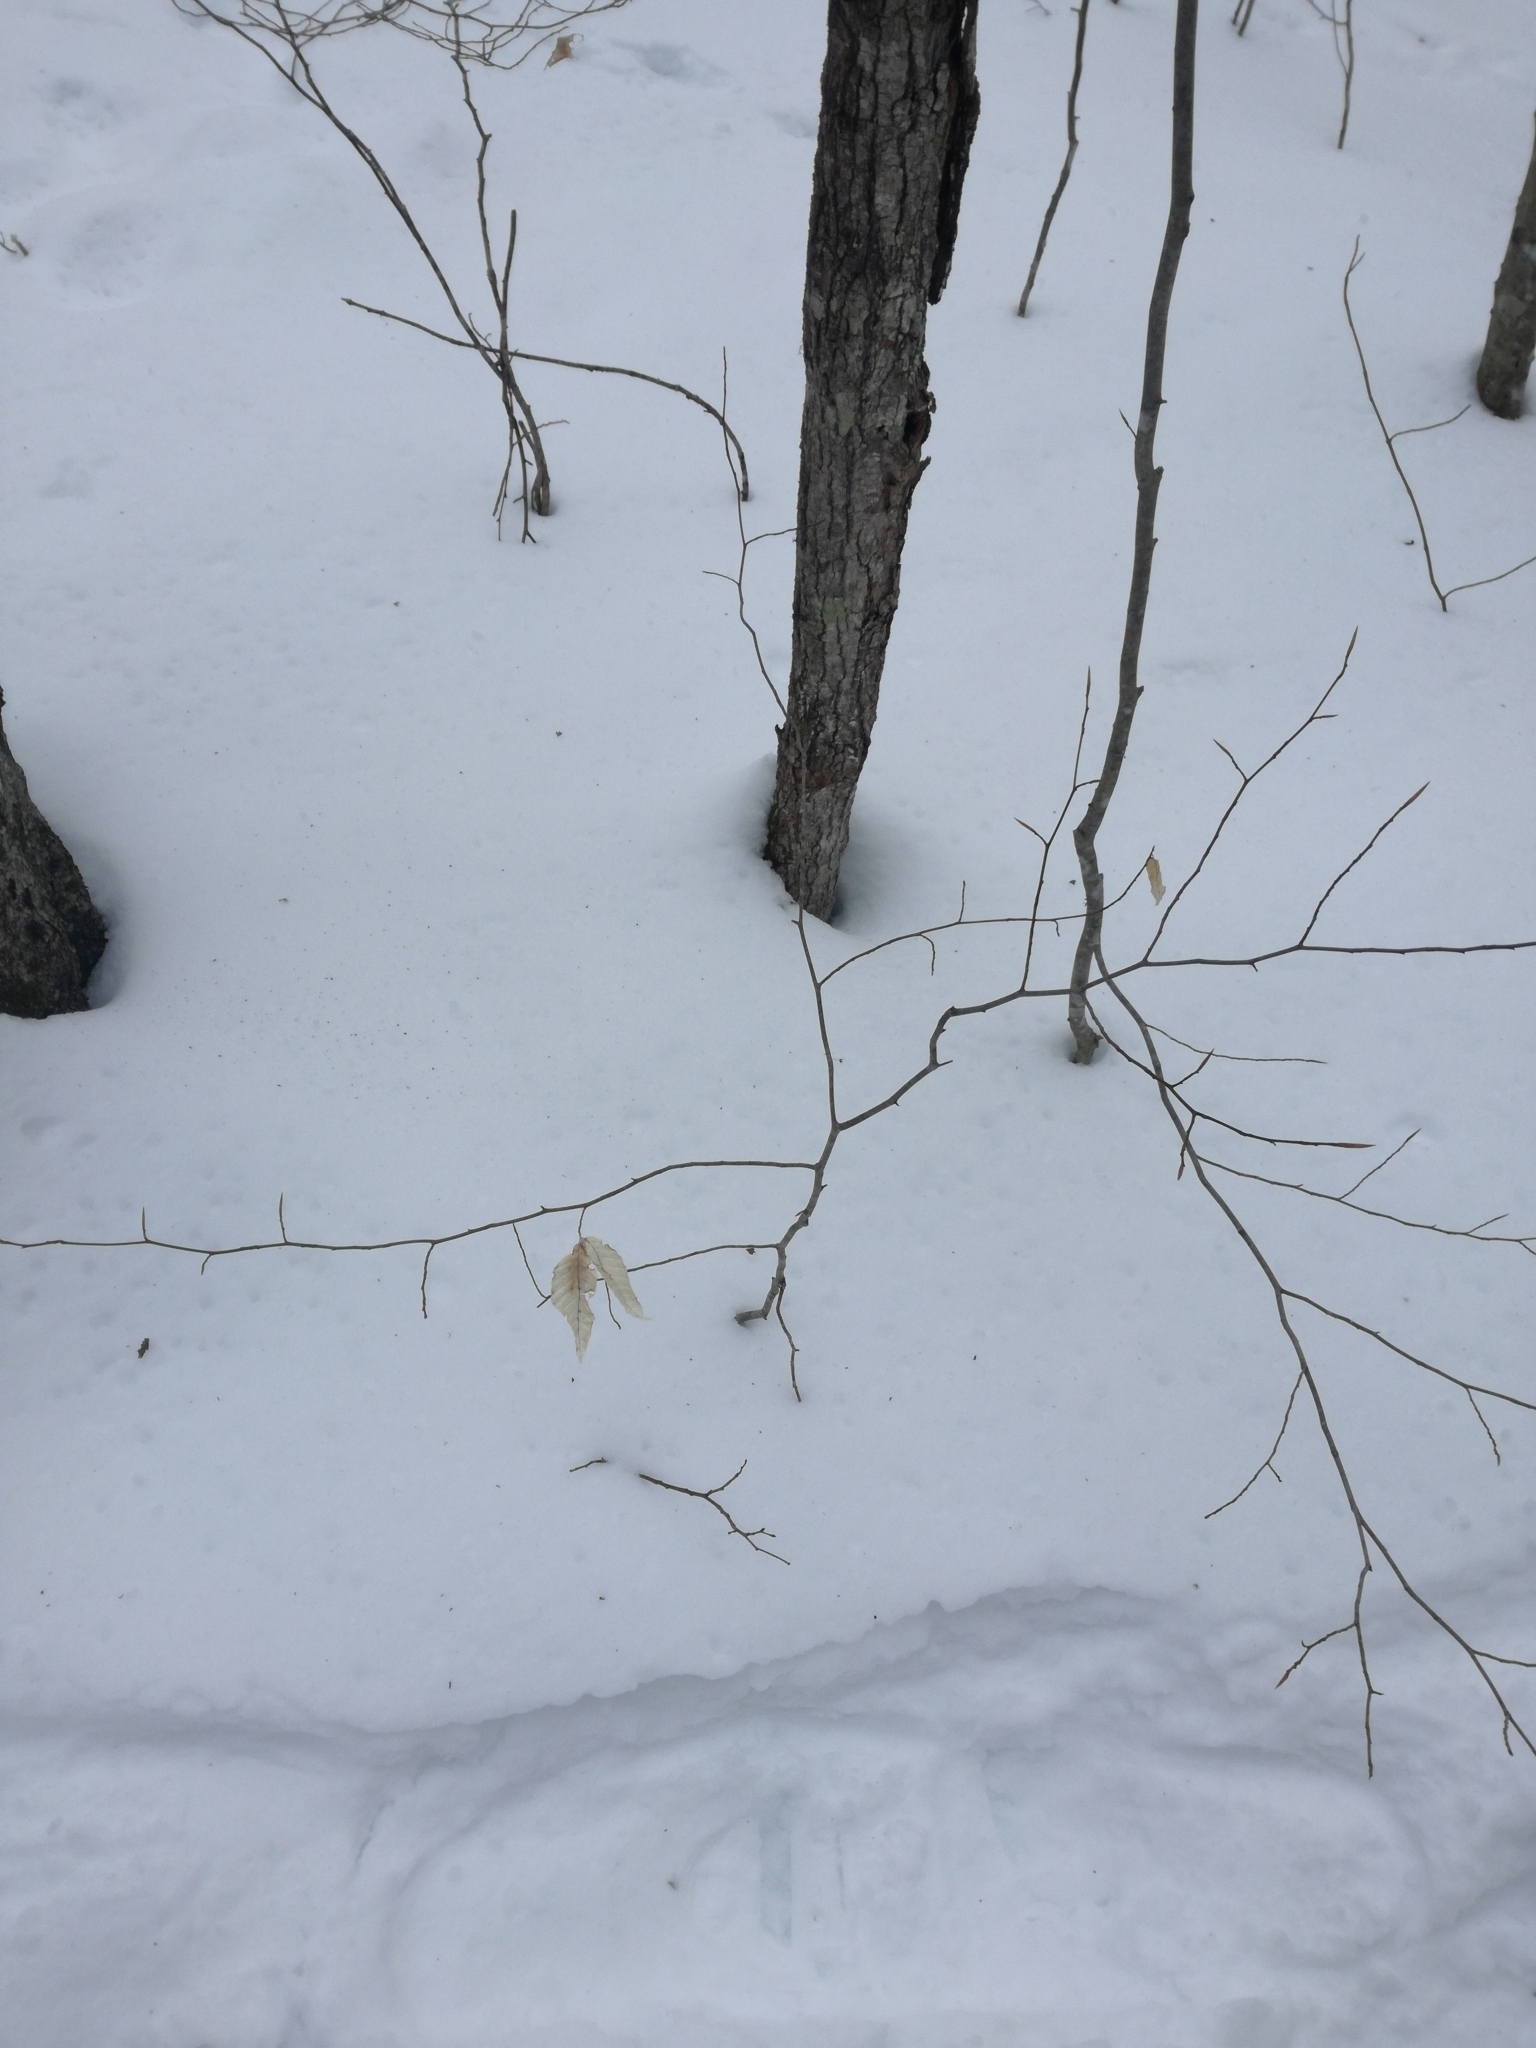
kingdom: Plantae
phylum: Tracheophyta
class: Magnoliopsida
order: Fagales
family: Fagaceae
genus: Fagus
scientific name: Fagus grandifolia
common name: American beech
